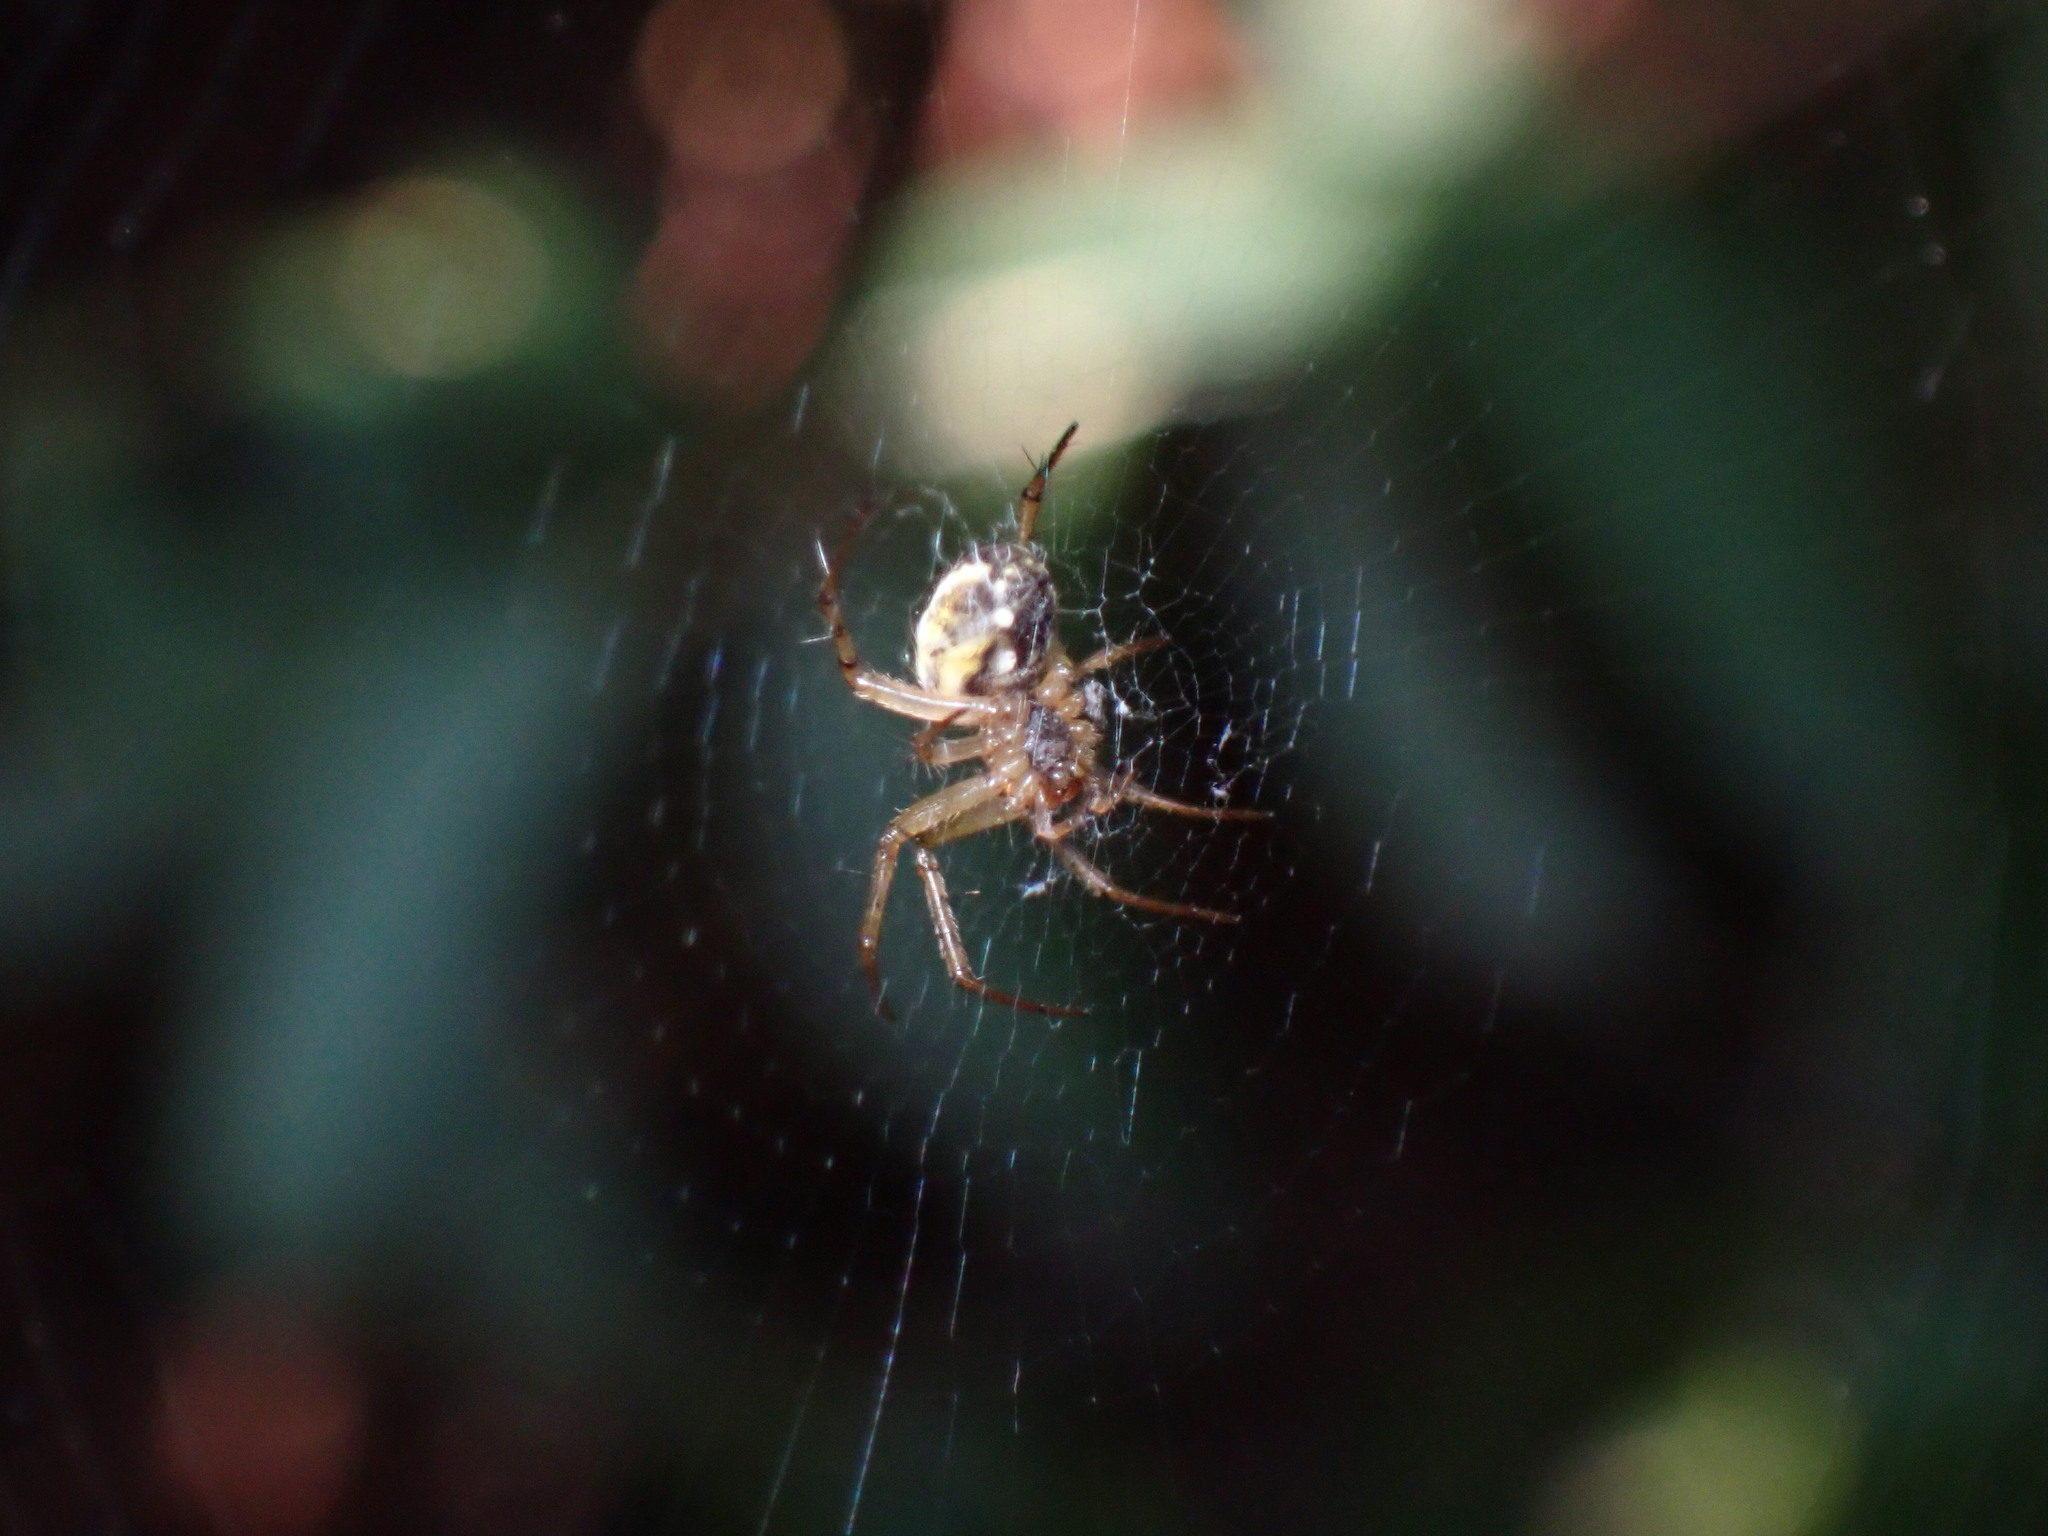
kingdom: Animalia
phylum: Arthropoda
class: Arachnida
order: Araneae
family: Araneidae
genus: Mangora
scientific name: Mangora acalypha
